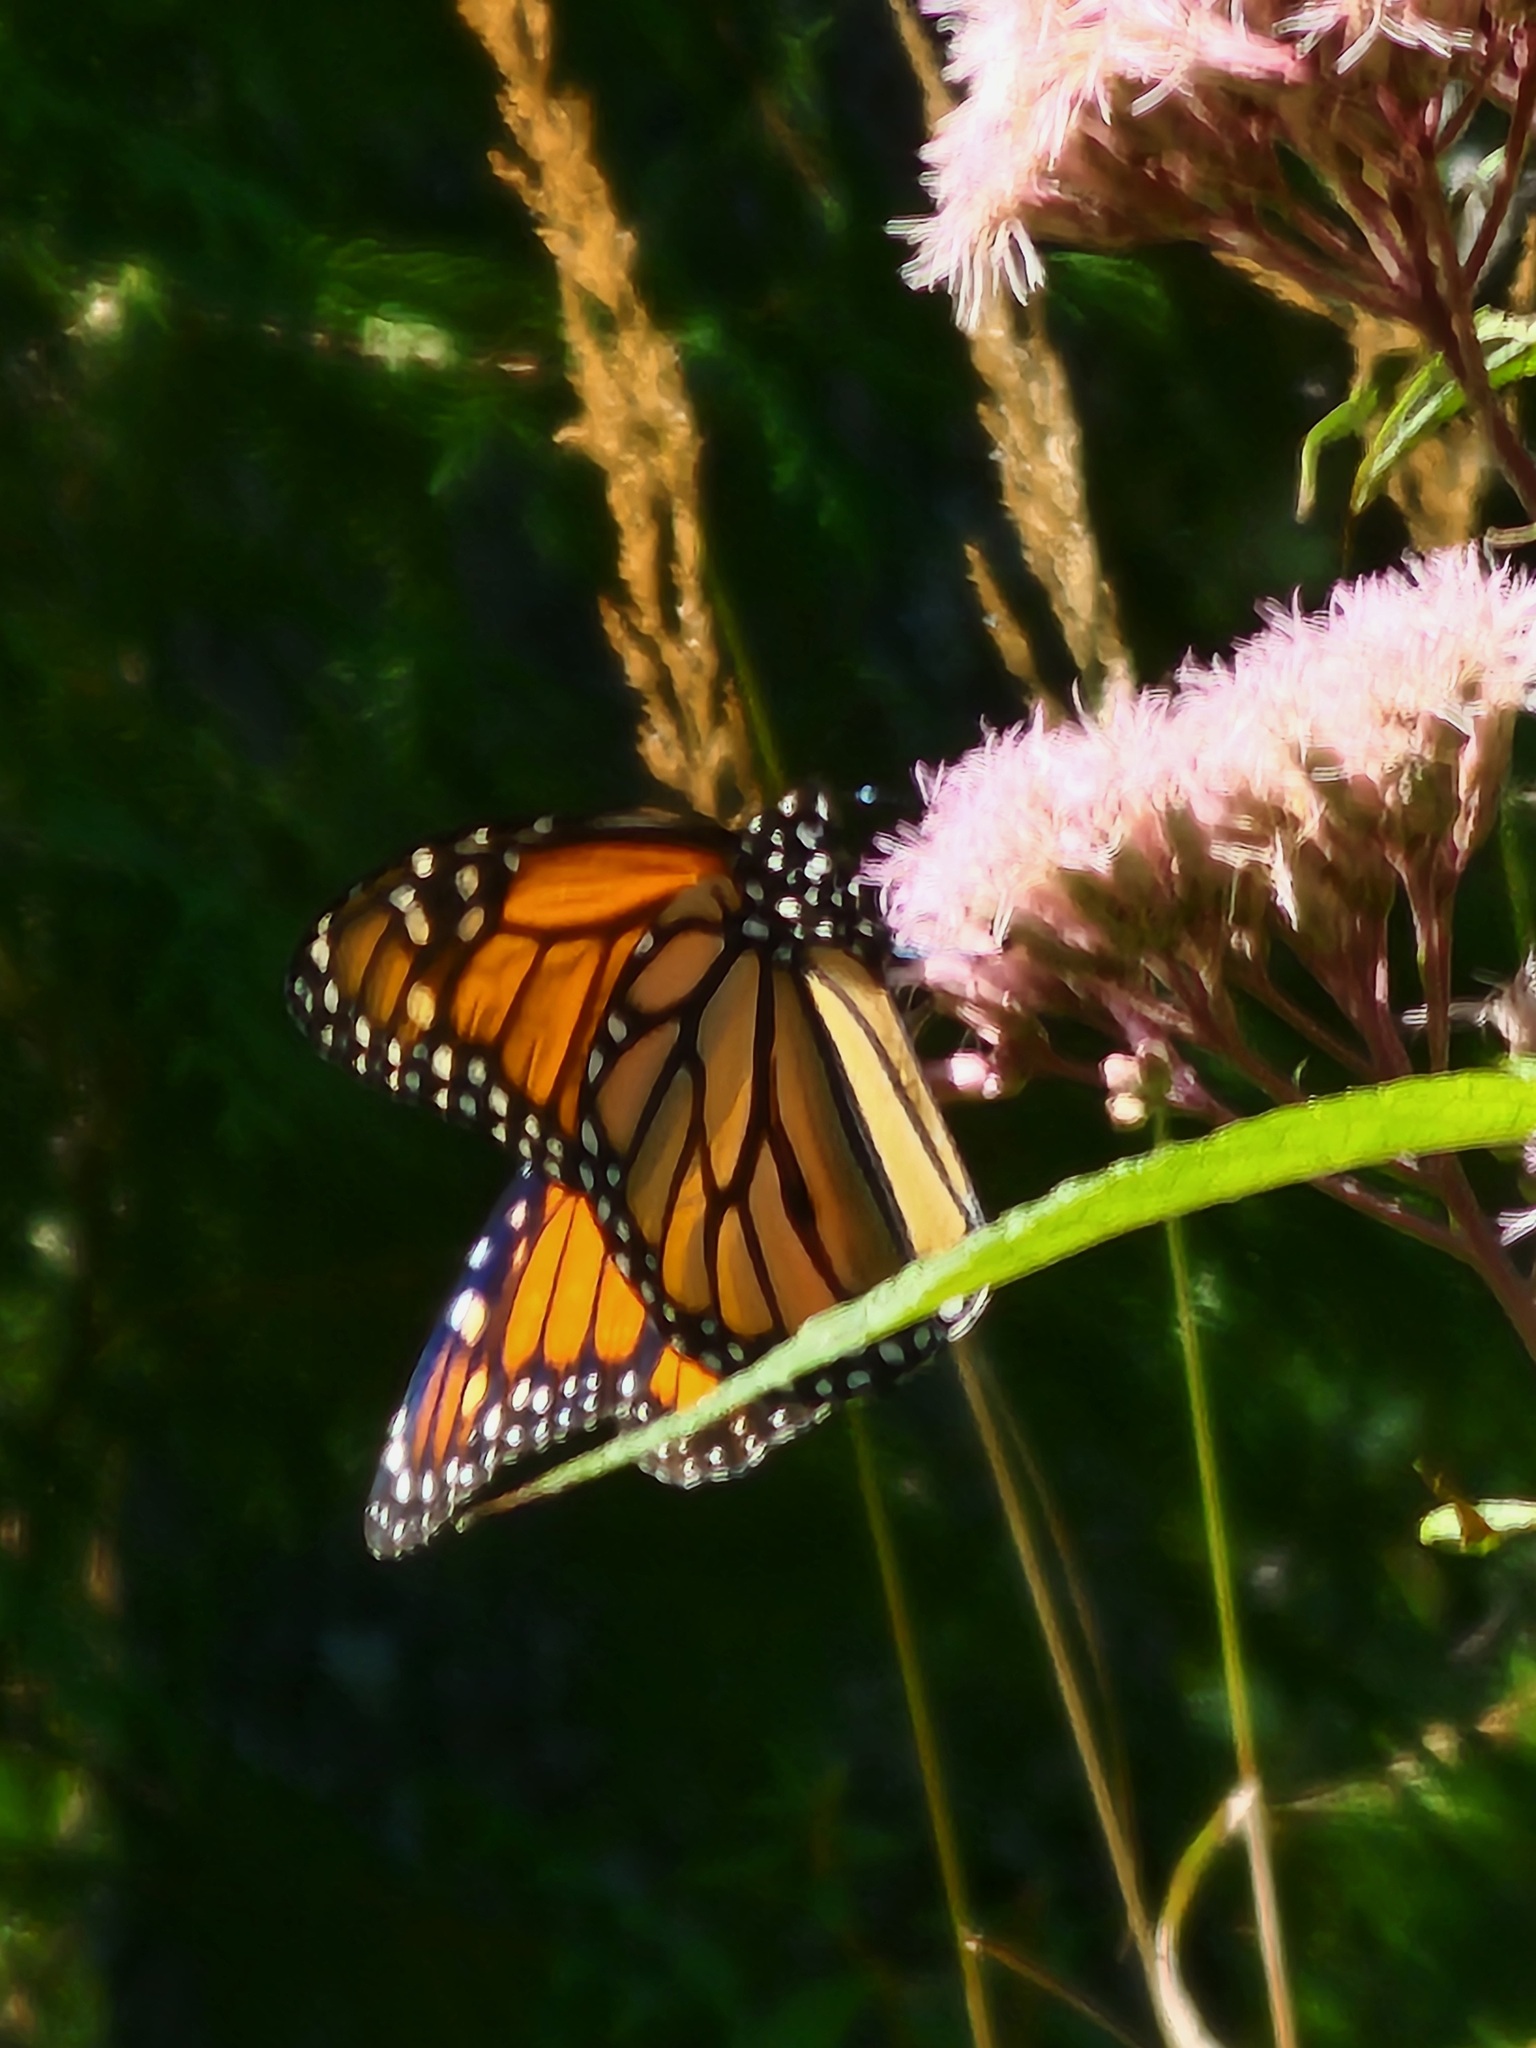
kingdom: Animalia
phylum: Arthropoda
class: Insecta
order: Lepidoptera
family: Nymphalidae
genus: Danaus
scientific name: Danaus plexippus
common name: Monarch
